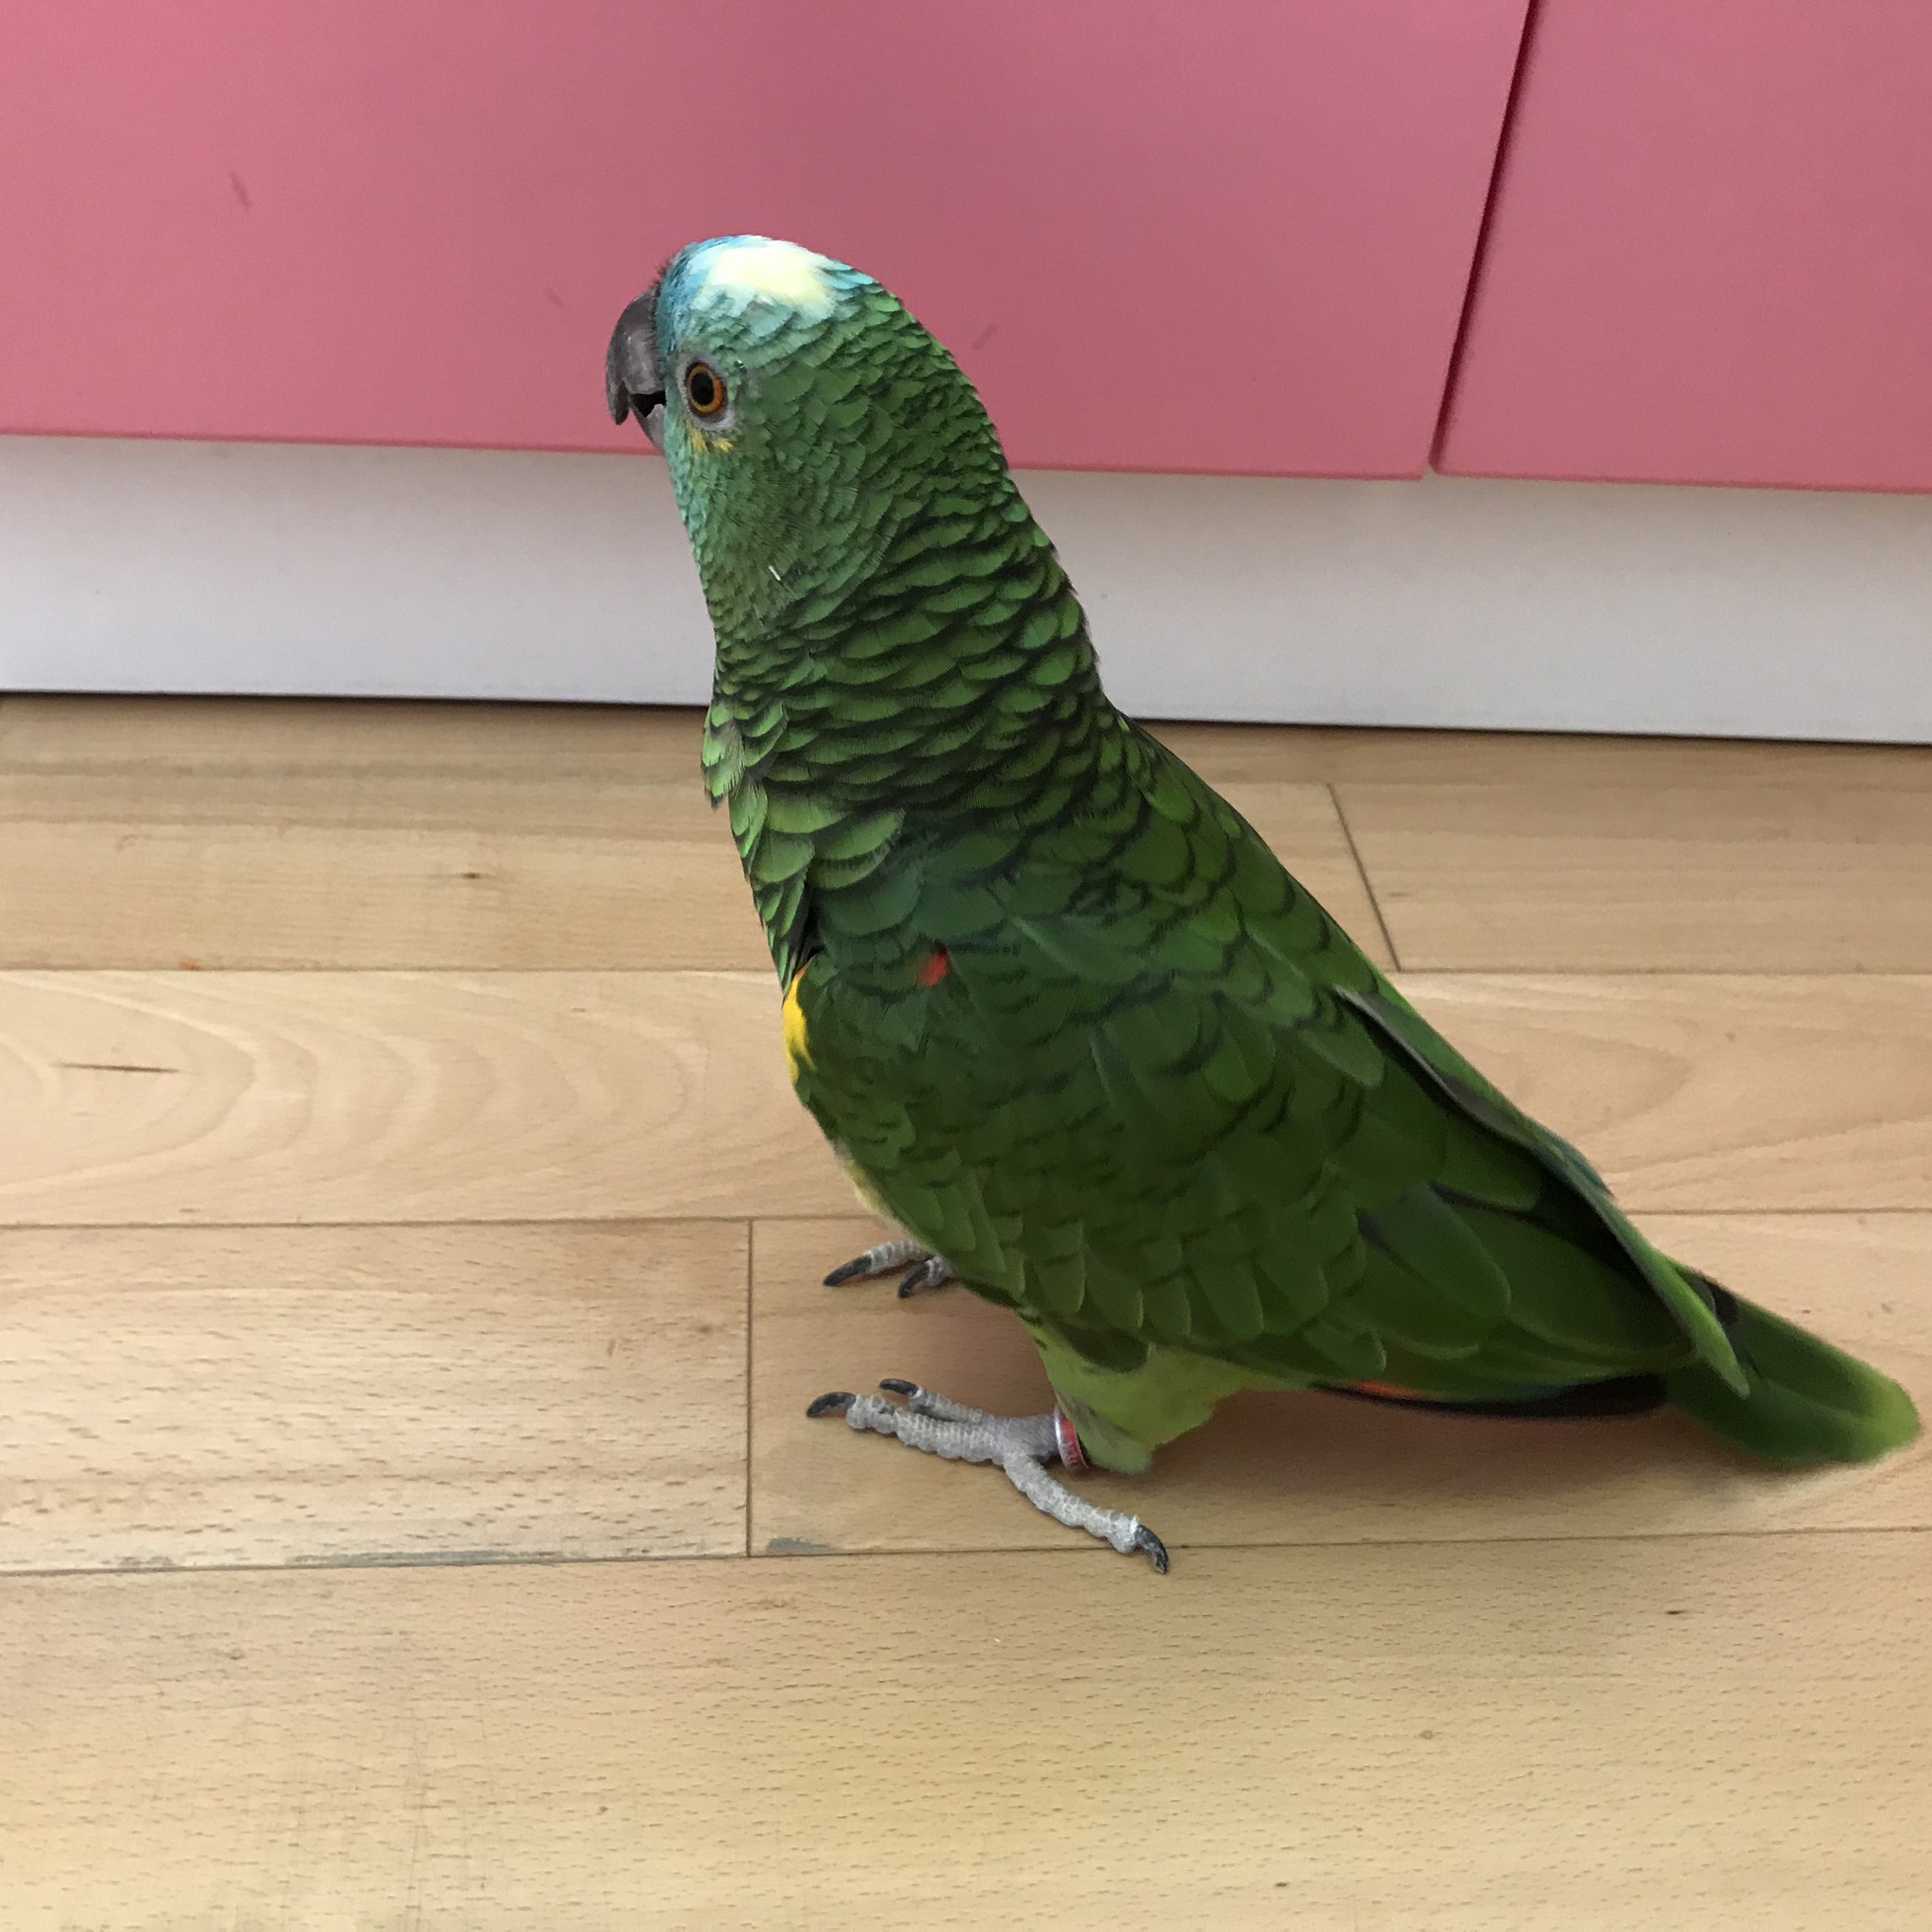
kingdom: Animalia
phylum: Chordata
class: Aves
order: Psittaciformes
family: Psittacidae
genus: Amazona
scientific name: Amazona aestiva
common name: Turquoise-fronted amazon
